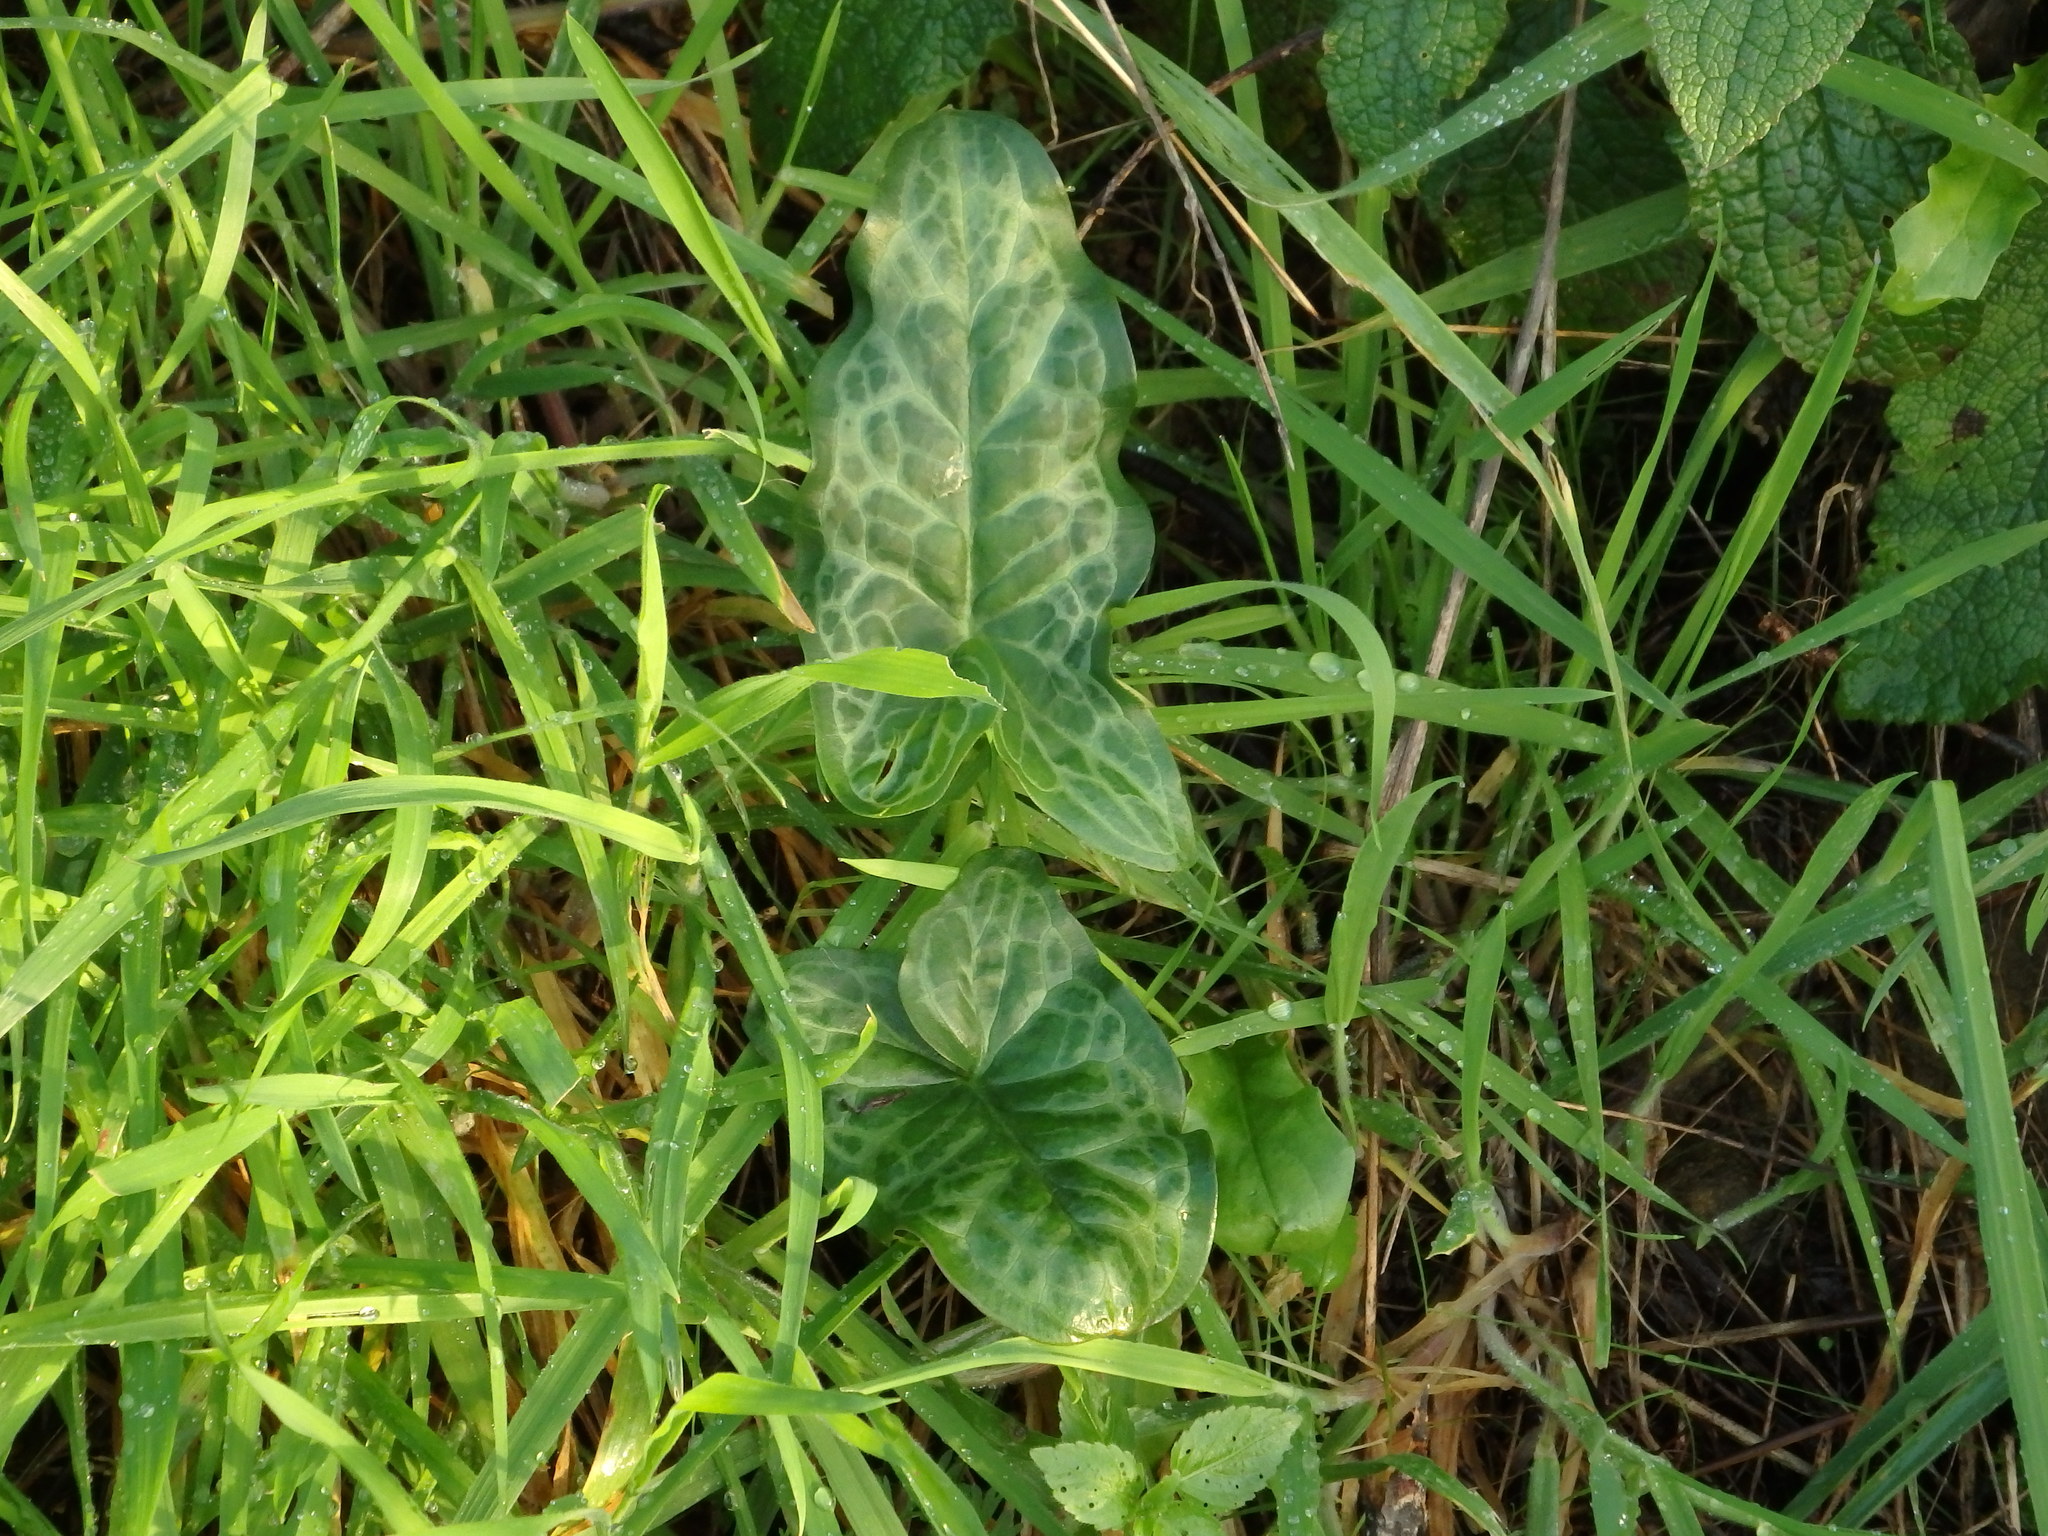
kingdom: Plantae
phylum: Tracheophyta
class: Liliopsida
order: Alismatales
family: Araceae
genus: Arum
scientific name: Arum italicum
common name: Italian lords-and-ladies
